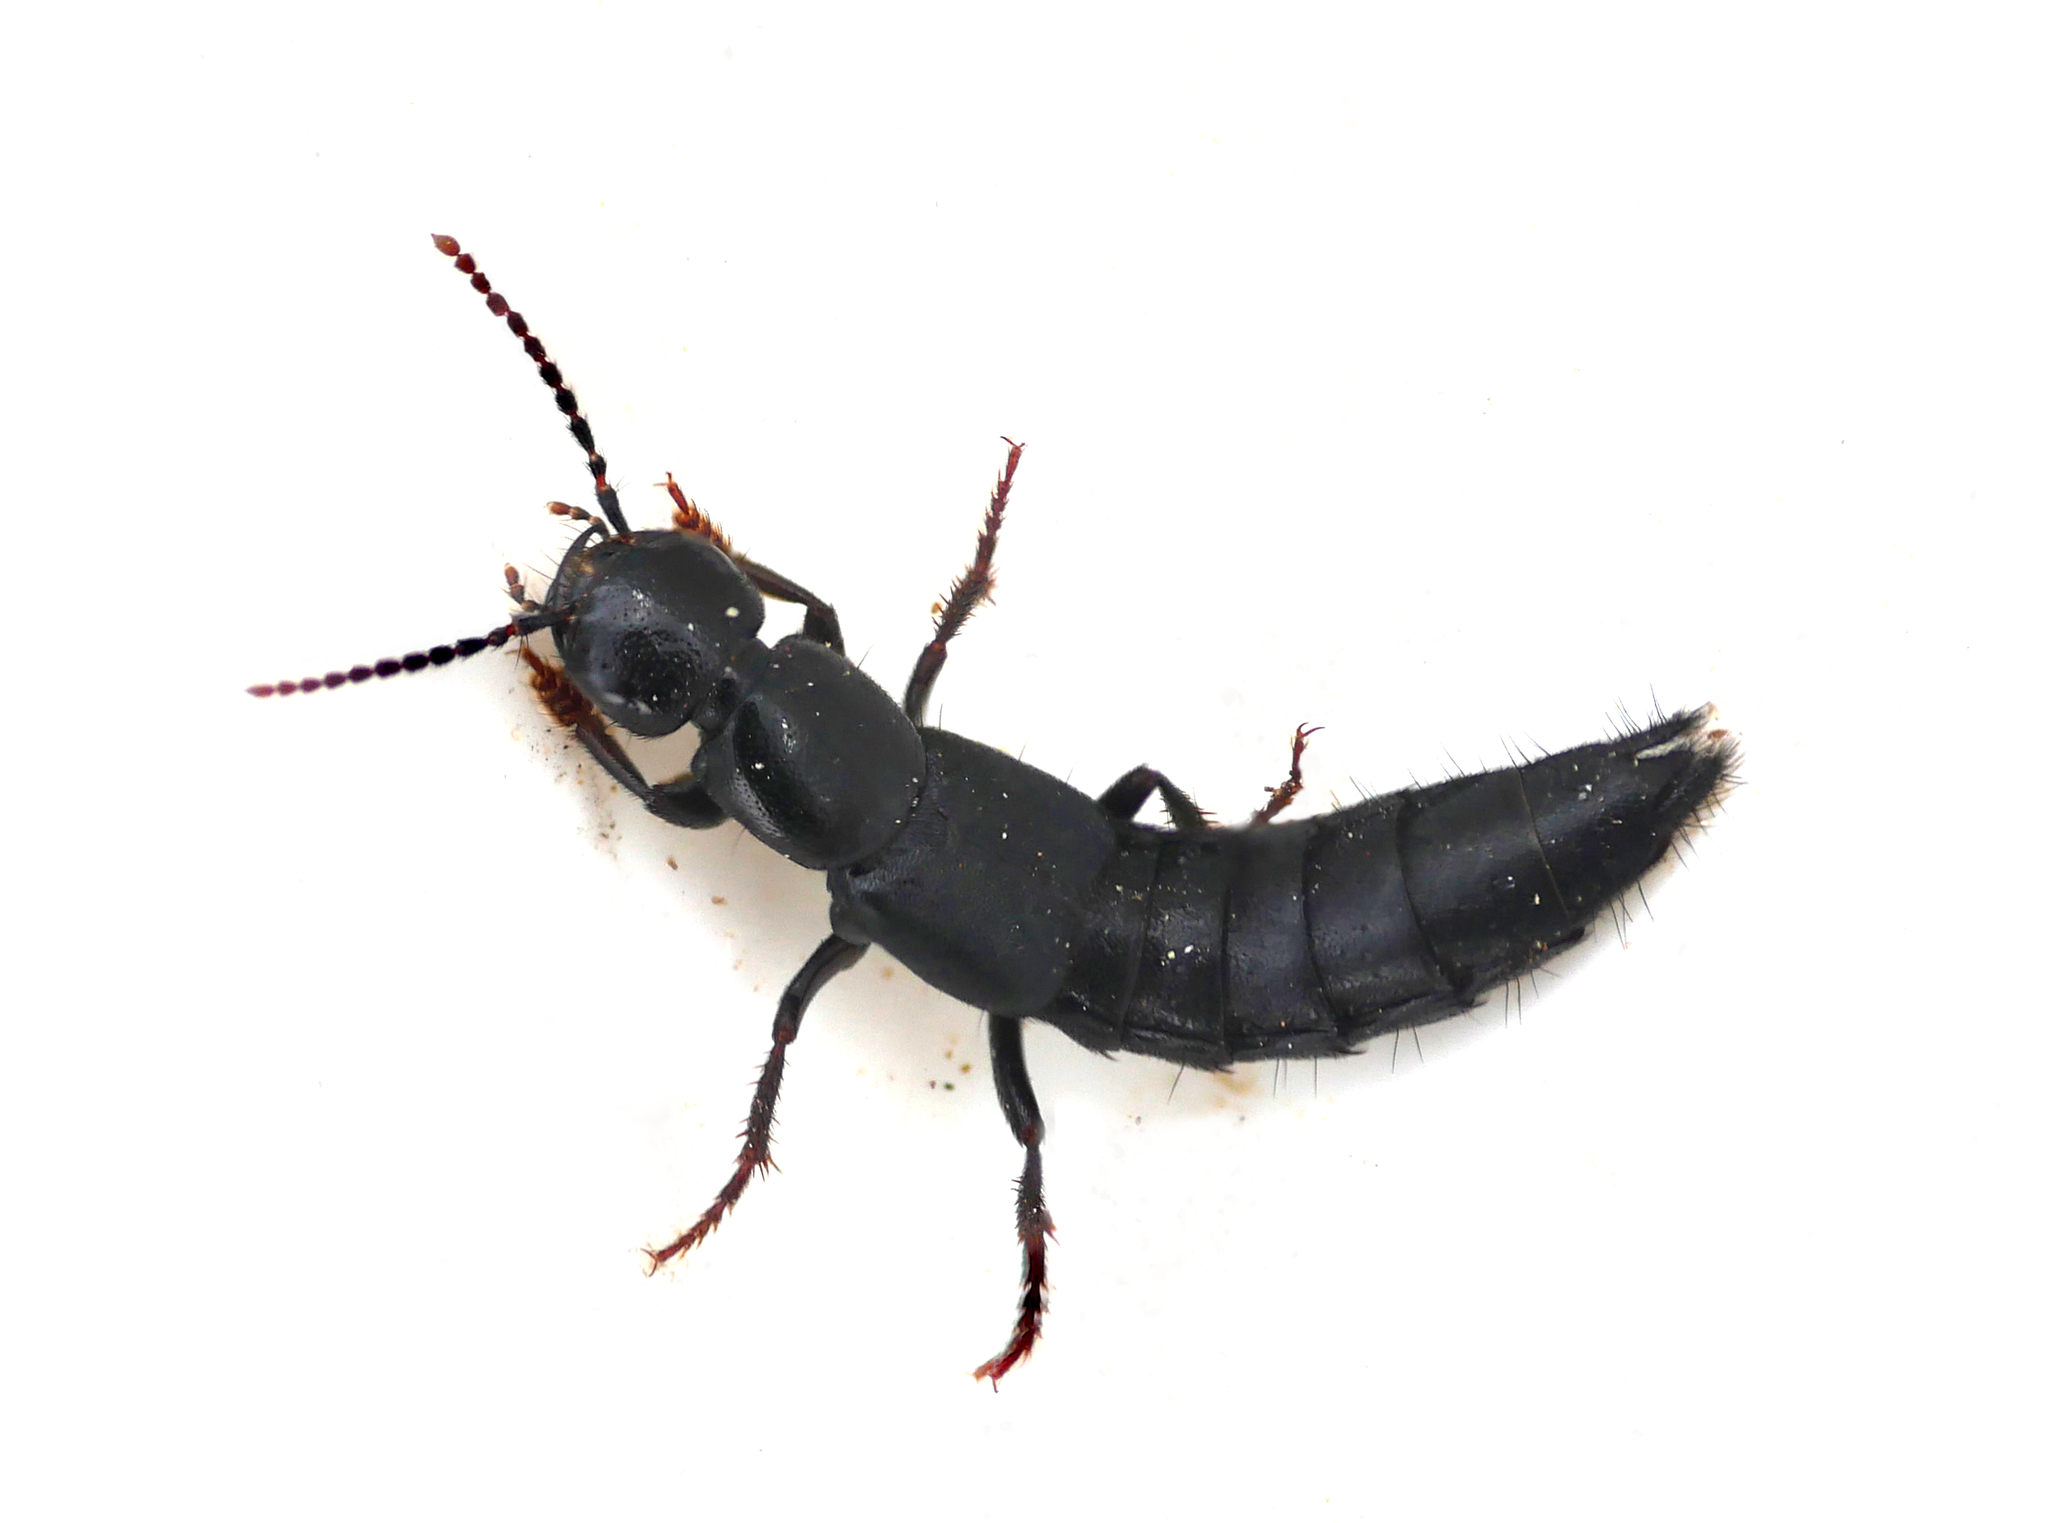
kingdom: Animalia
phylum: Arthropoda
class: Insecta
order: Coleoptera
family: Staphylinidae
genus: Tasgius
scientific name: Tasgius ater
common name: Staph beetle
